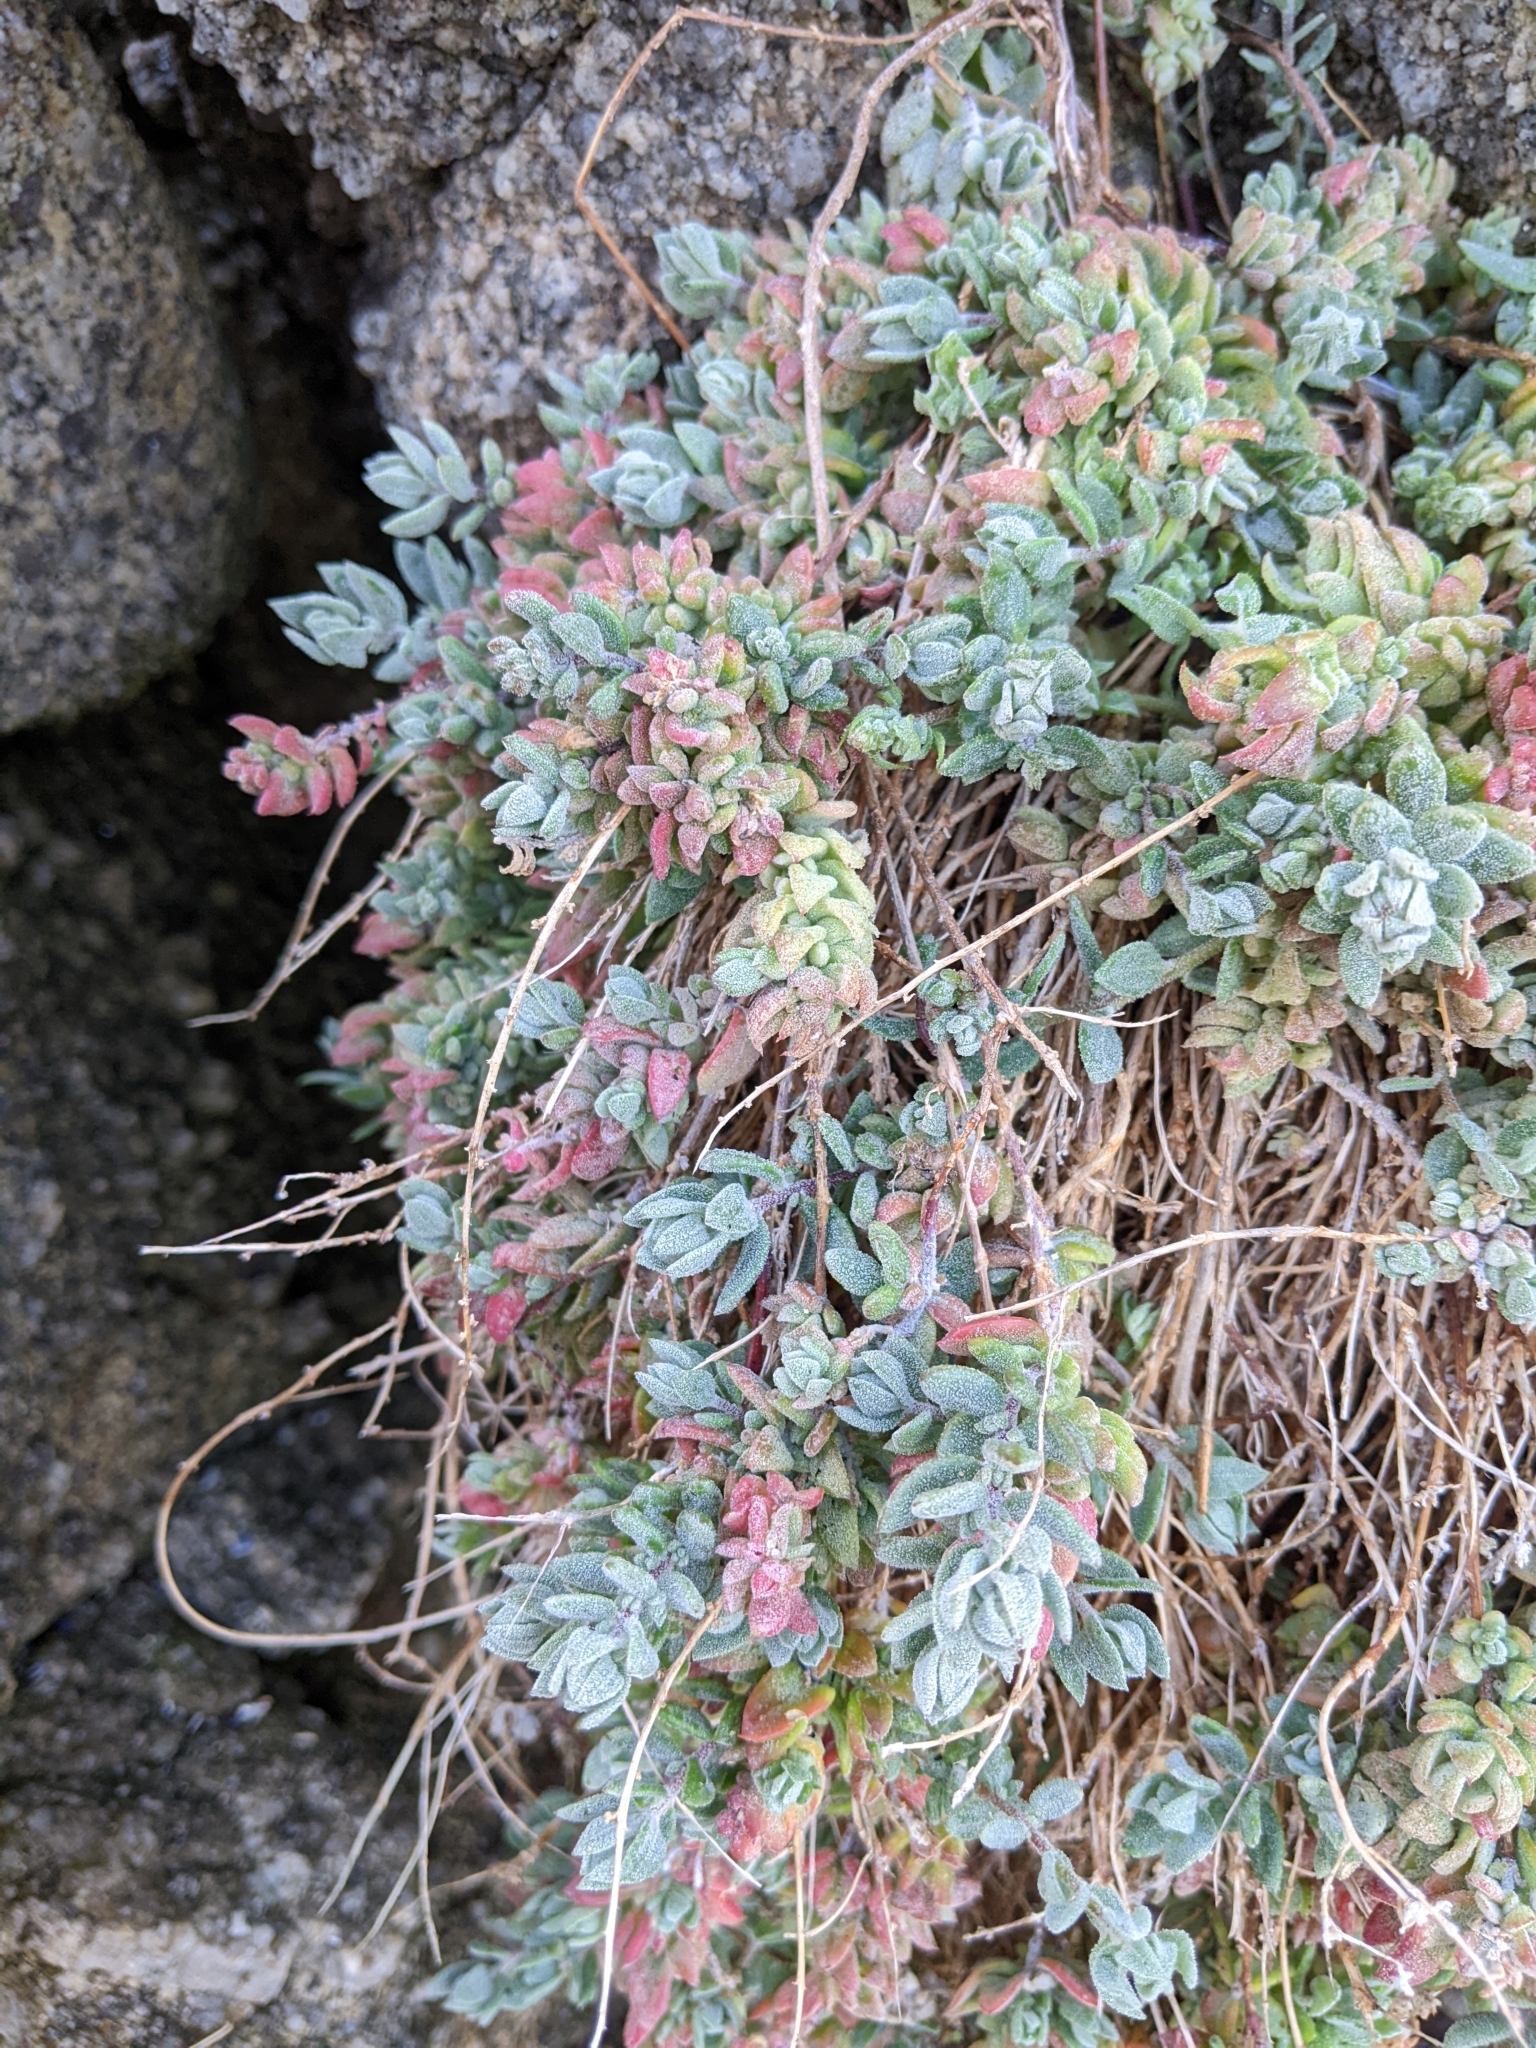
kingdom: Plantae
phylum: Tracheophyta
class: Magnoliopsida
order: Caryophyllales
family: Amaranthaceae
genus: Extriplex
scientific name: Extriplex californica
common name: California saltbush
